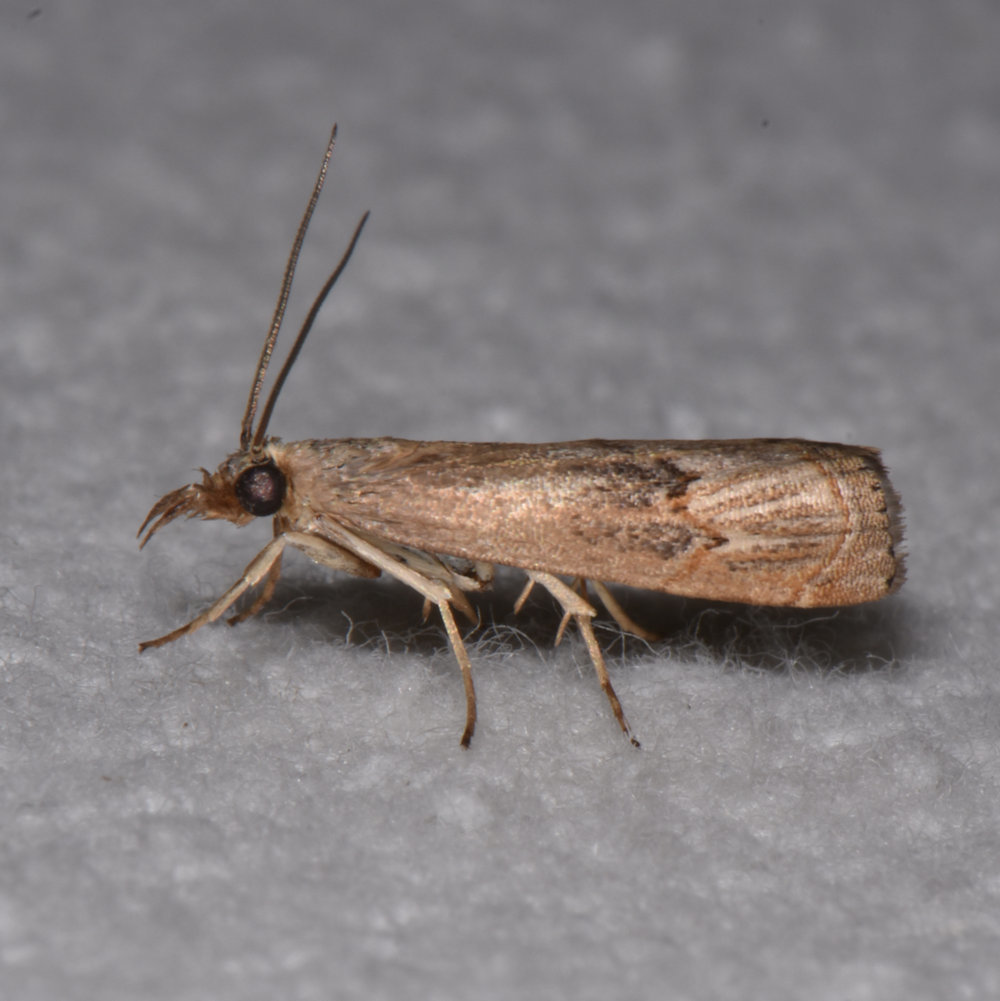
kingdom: Animalia
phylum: Arthropoda
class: Insecta
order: Lepidoptera
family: Crambidae
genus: Parapediasia
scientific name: Parapediasia teterellus
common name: Bluegrass webworm moth
